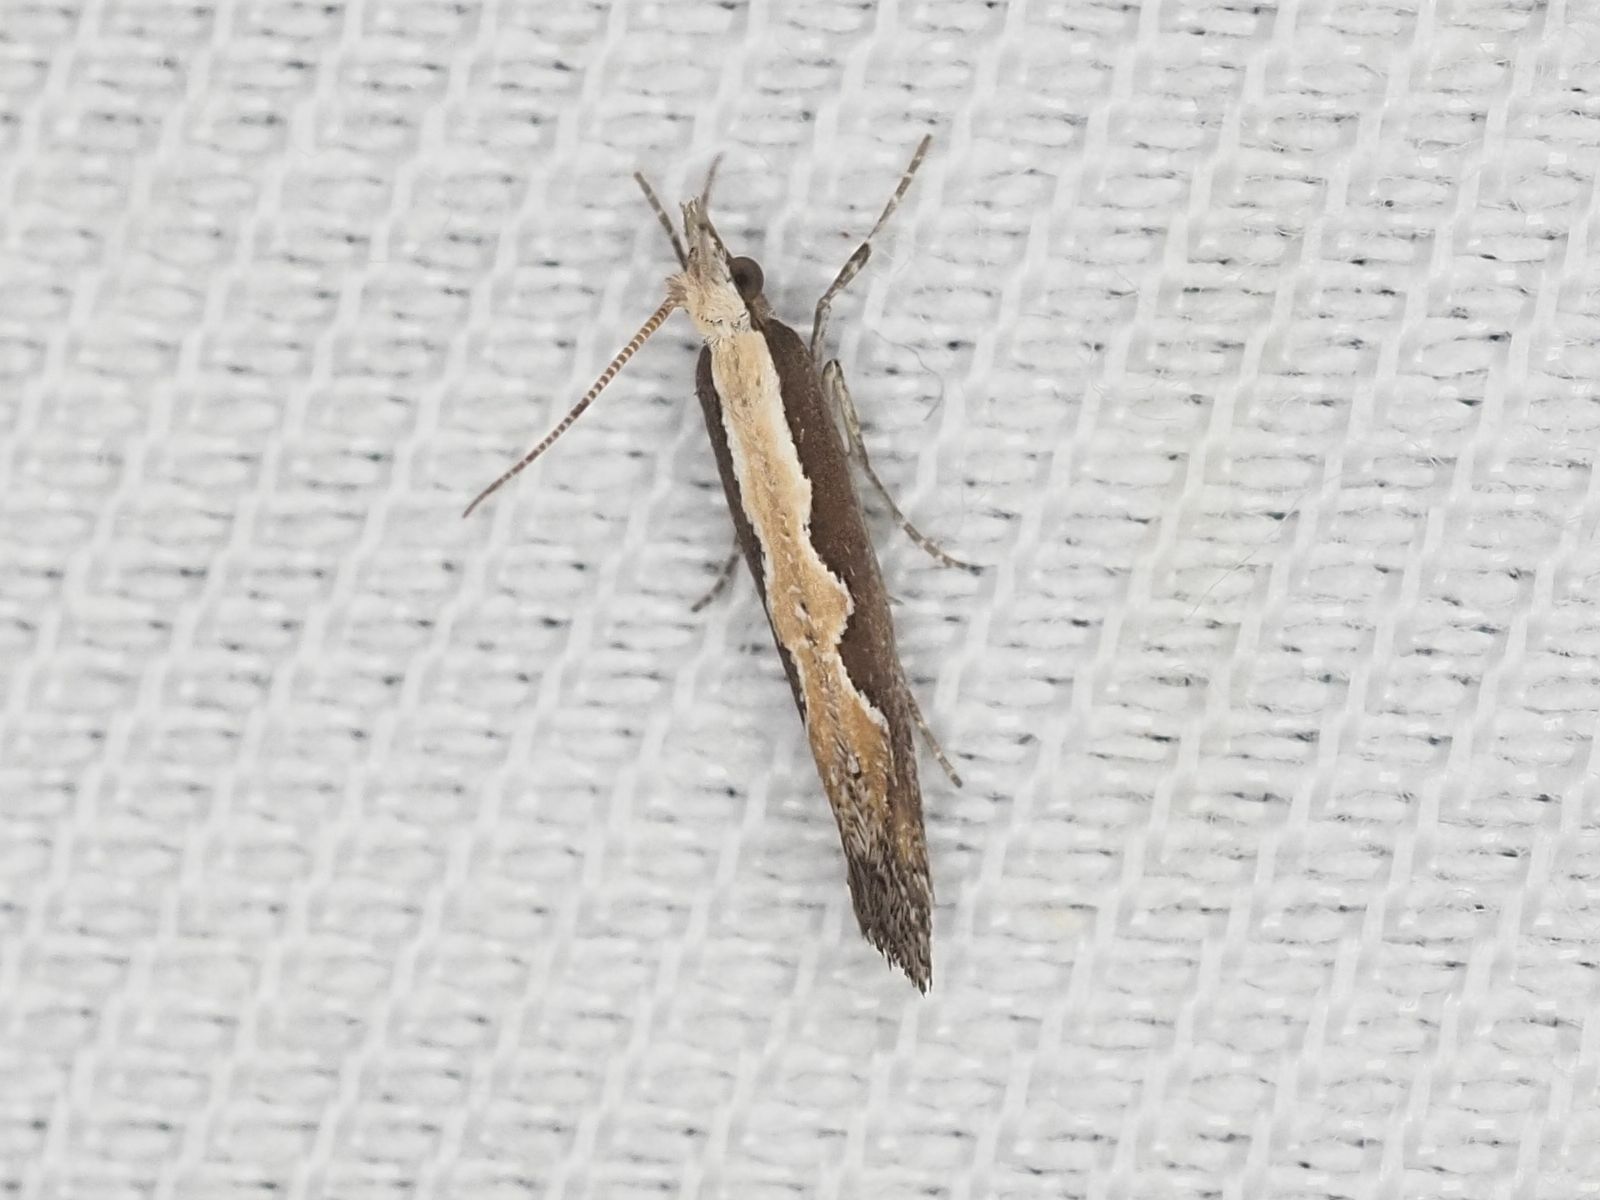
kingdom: Animalia
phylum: Arthropoda
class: Insecta
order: Lepidoptera
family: Plutellidae
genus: Plutella
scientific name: Plutella xylostella
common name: Diamond-back moth
